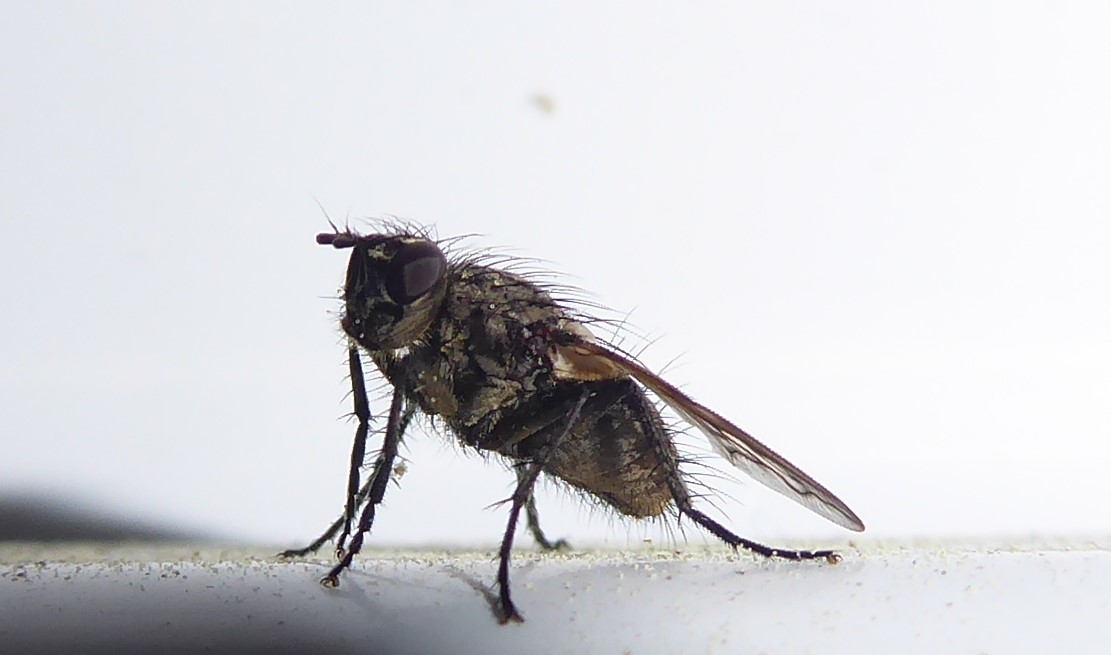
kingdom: Animalia
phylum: Arthropoda
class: Insecta
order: Diptera
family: Tachinidae
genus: Mallochomacquartia
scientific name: Mallochomacquartia vexata
